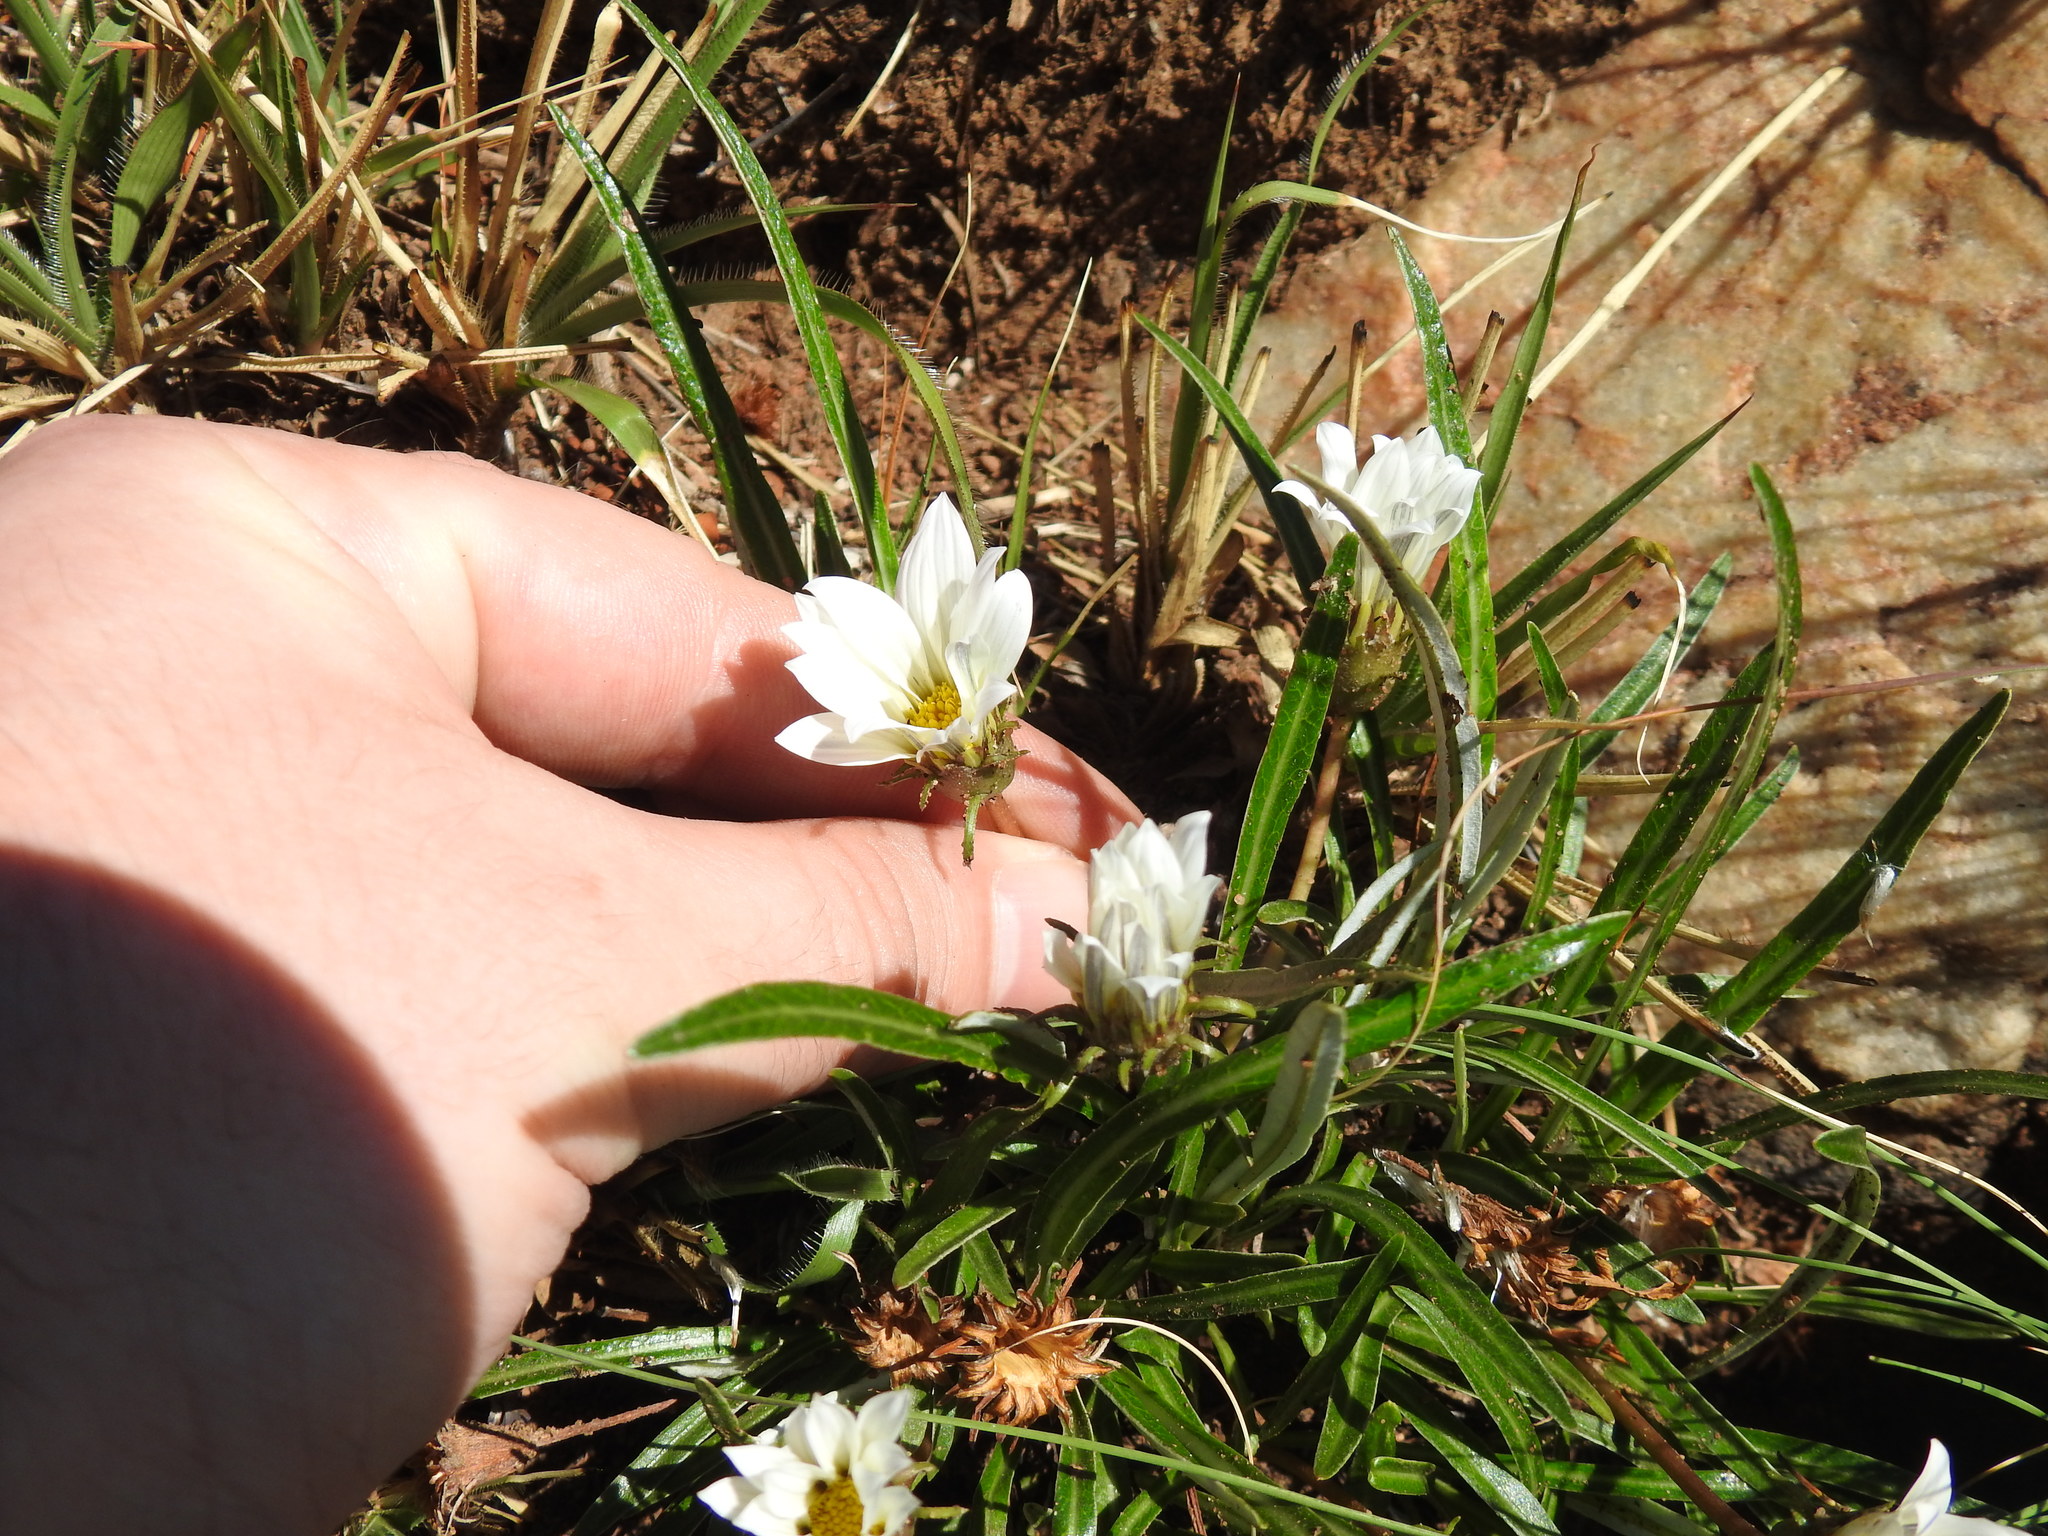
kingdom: Plantae
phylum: Tracheophyta
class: Magnoliopsida
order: Asterales
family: Asteraceae
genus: Gazania
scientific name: Gazania krebsiana
